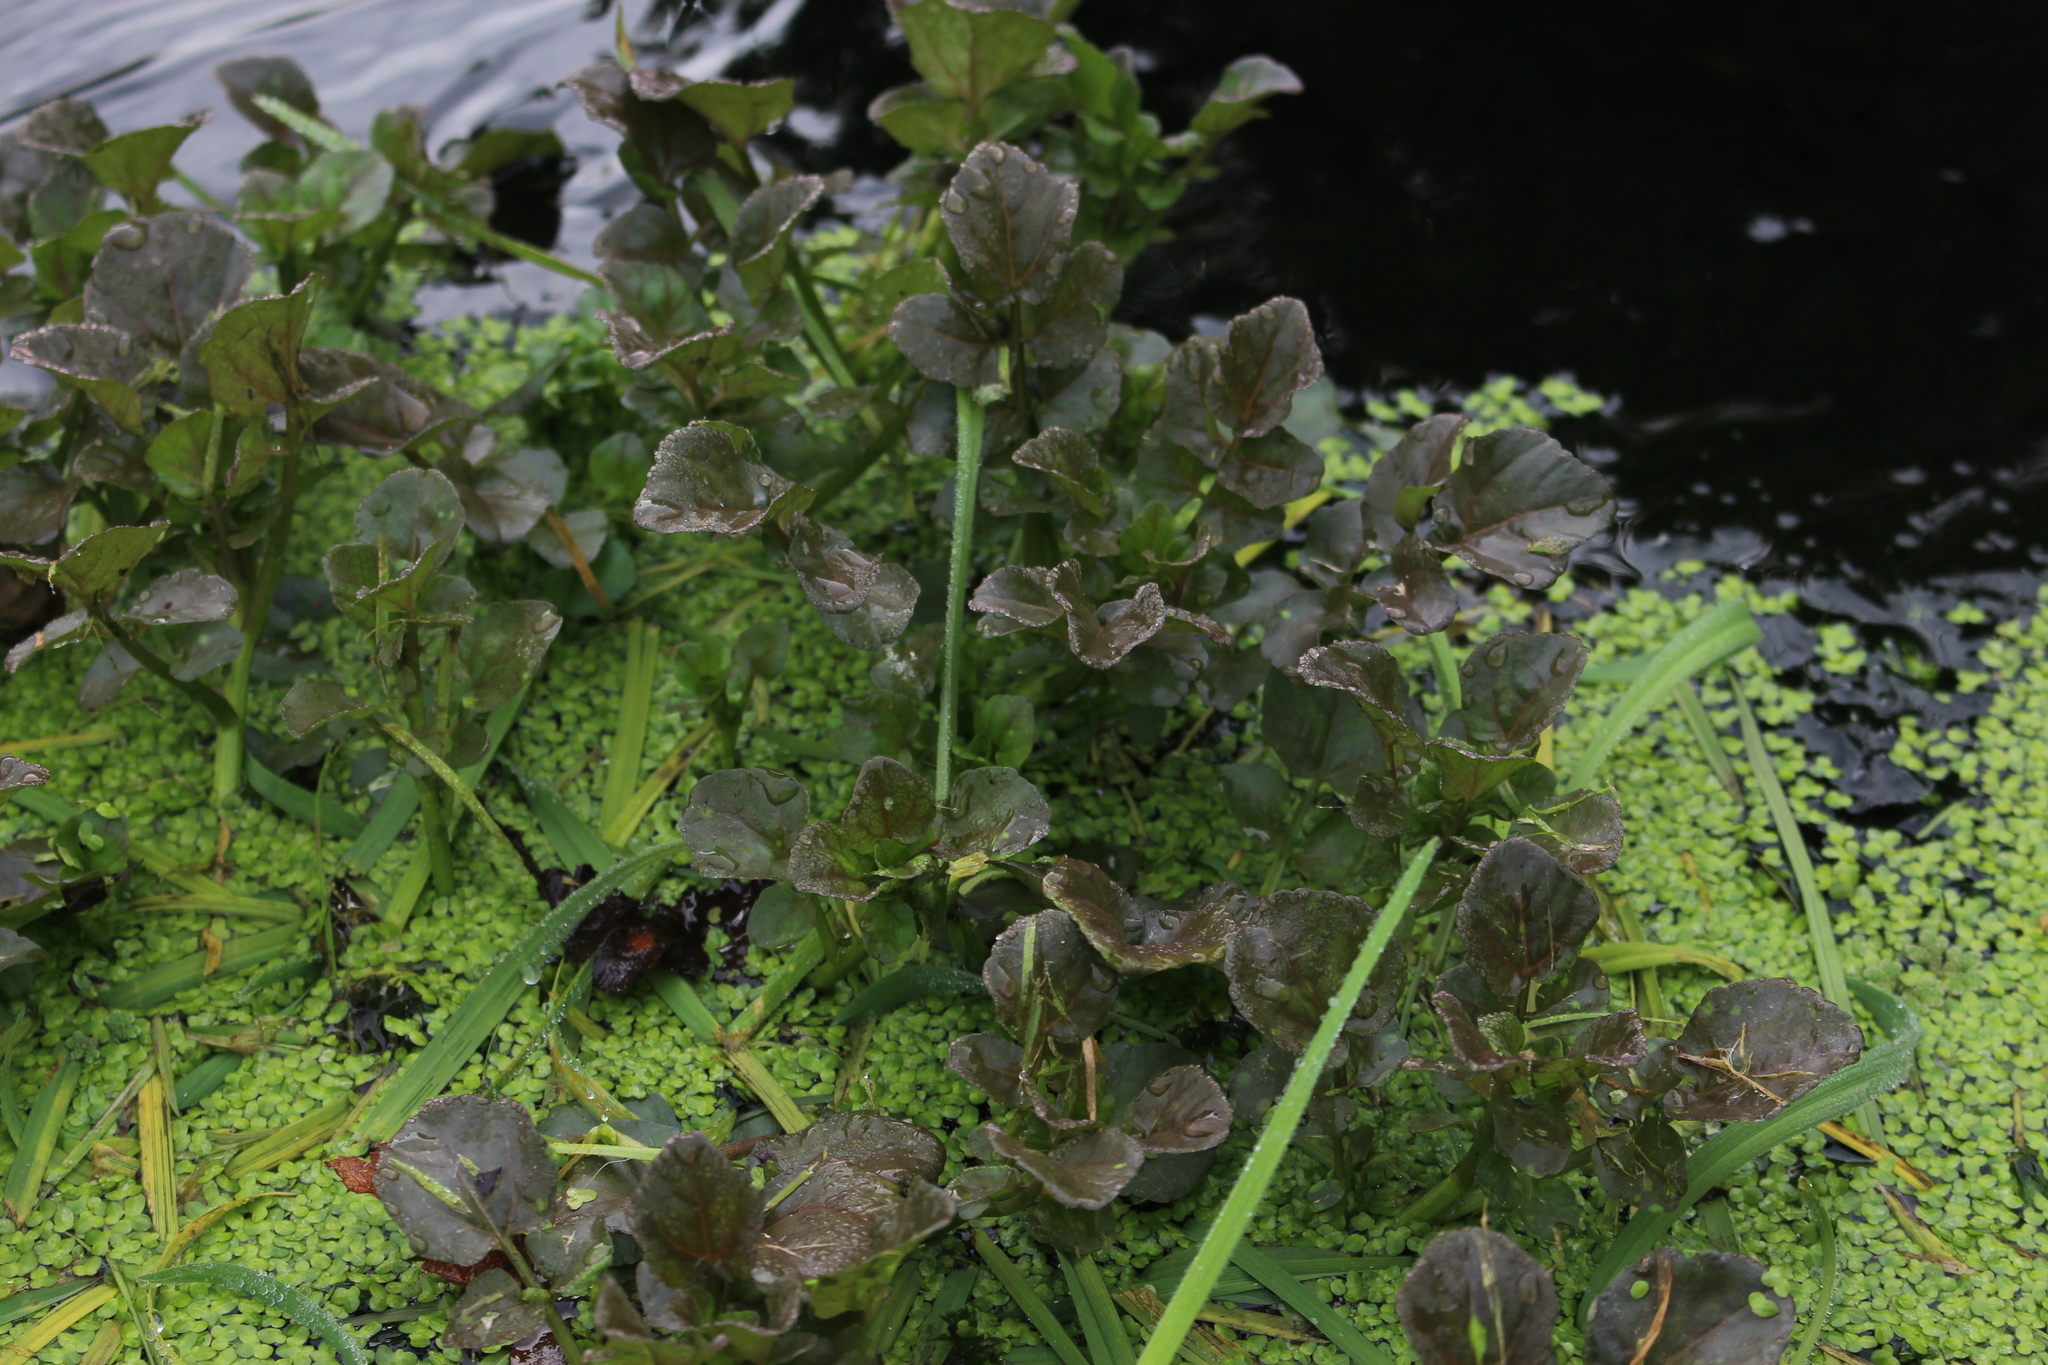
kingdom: Plantae
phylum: Tracheophyta
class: Magnoliopsida
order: Brassicales
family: Brassicaceae
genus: Nasturtium
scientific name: Nasturtium microphyllum
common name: Onerow yellowcress
